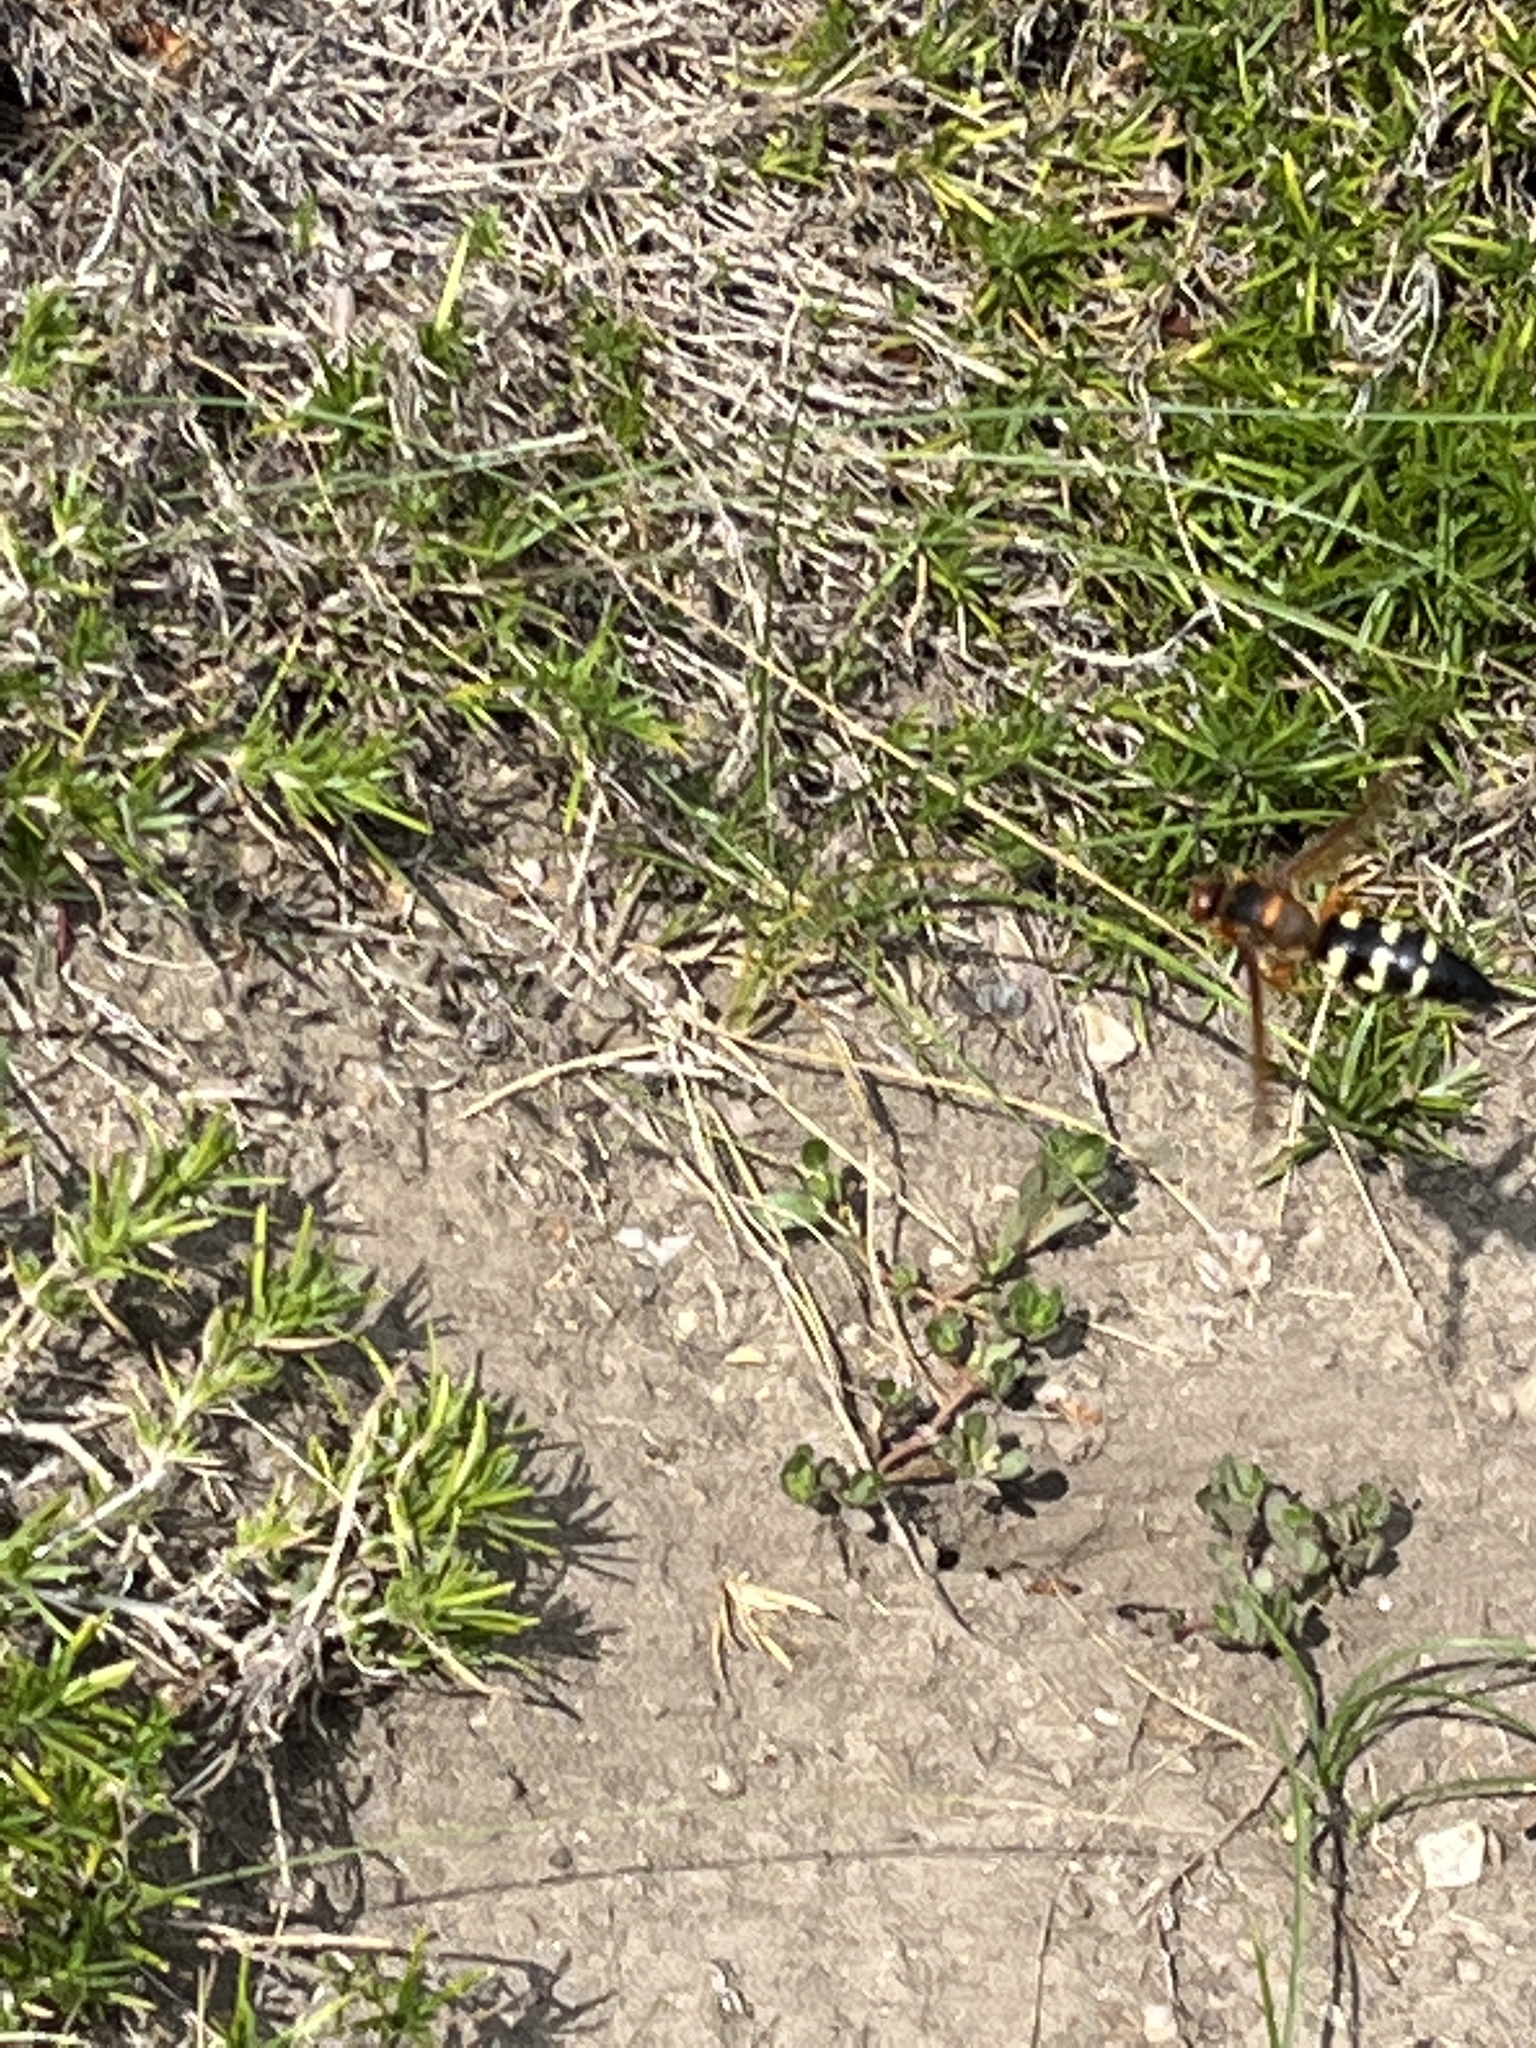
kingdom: Animalia
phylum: Arthropoda
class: Insecta
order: Hymenoptera
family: Crabronidae
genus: Sphecius
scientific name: Sphecius speciosus
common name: Cicada killer
